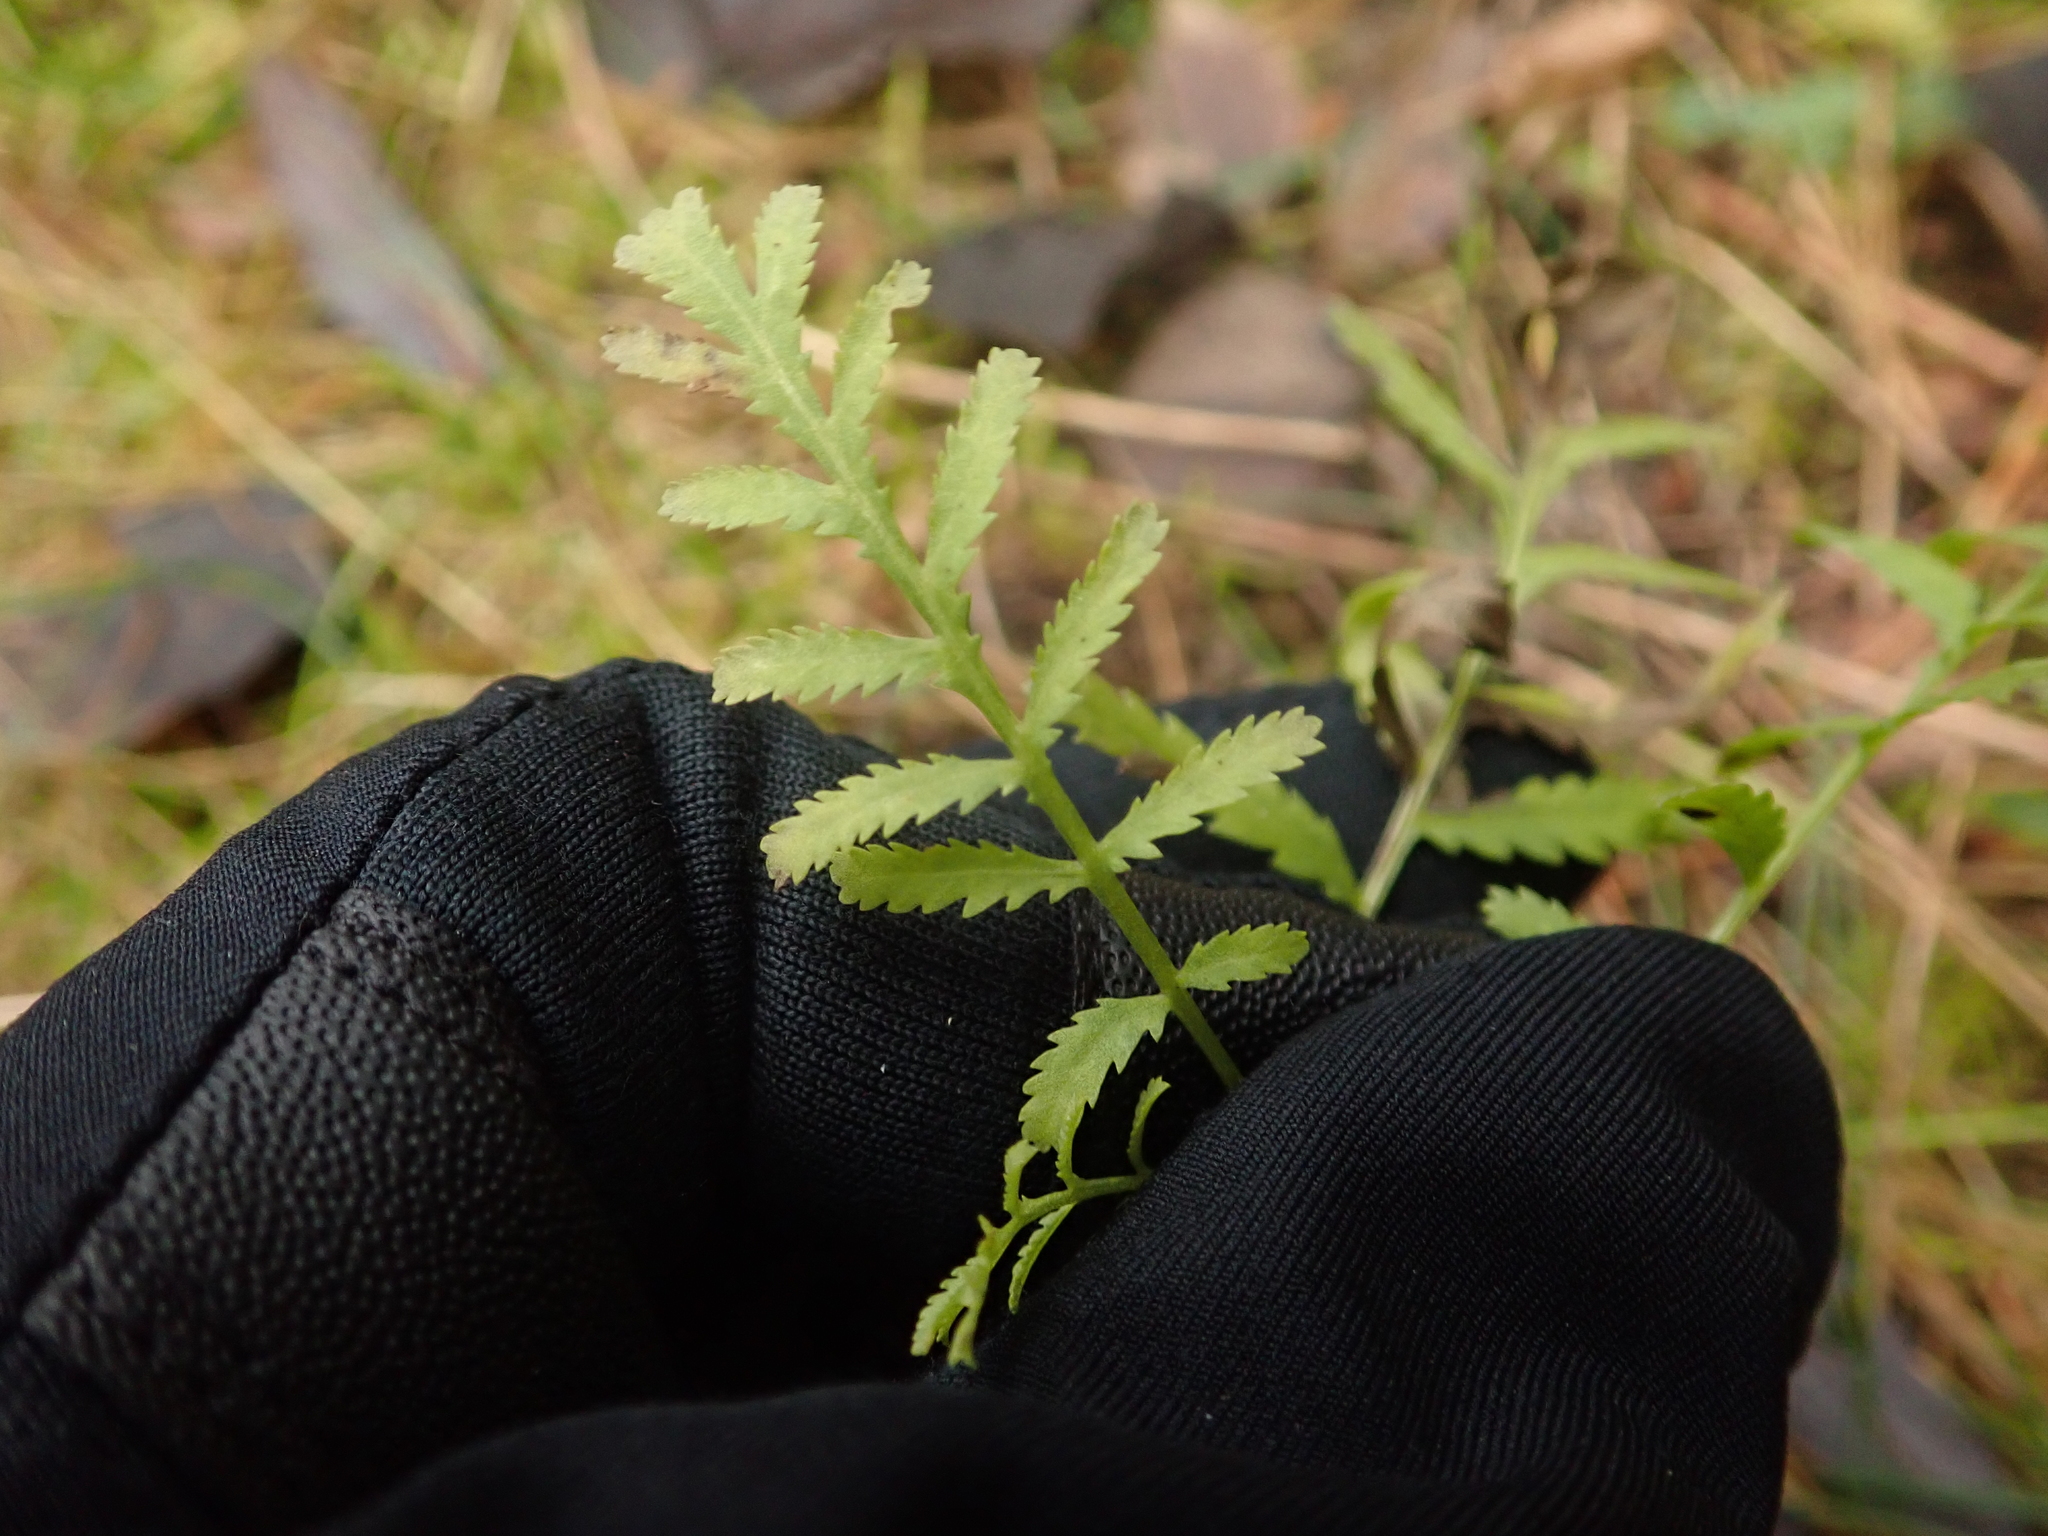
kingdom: Plantae
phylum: Tracheophyta
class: Magnoliopsida
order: Asterales
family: Asteraceae
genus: Tanacetum
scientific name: Tanacetum vulgare
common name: Common tansy
